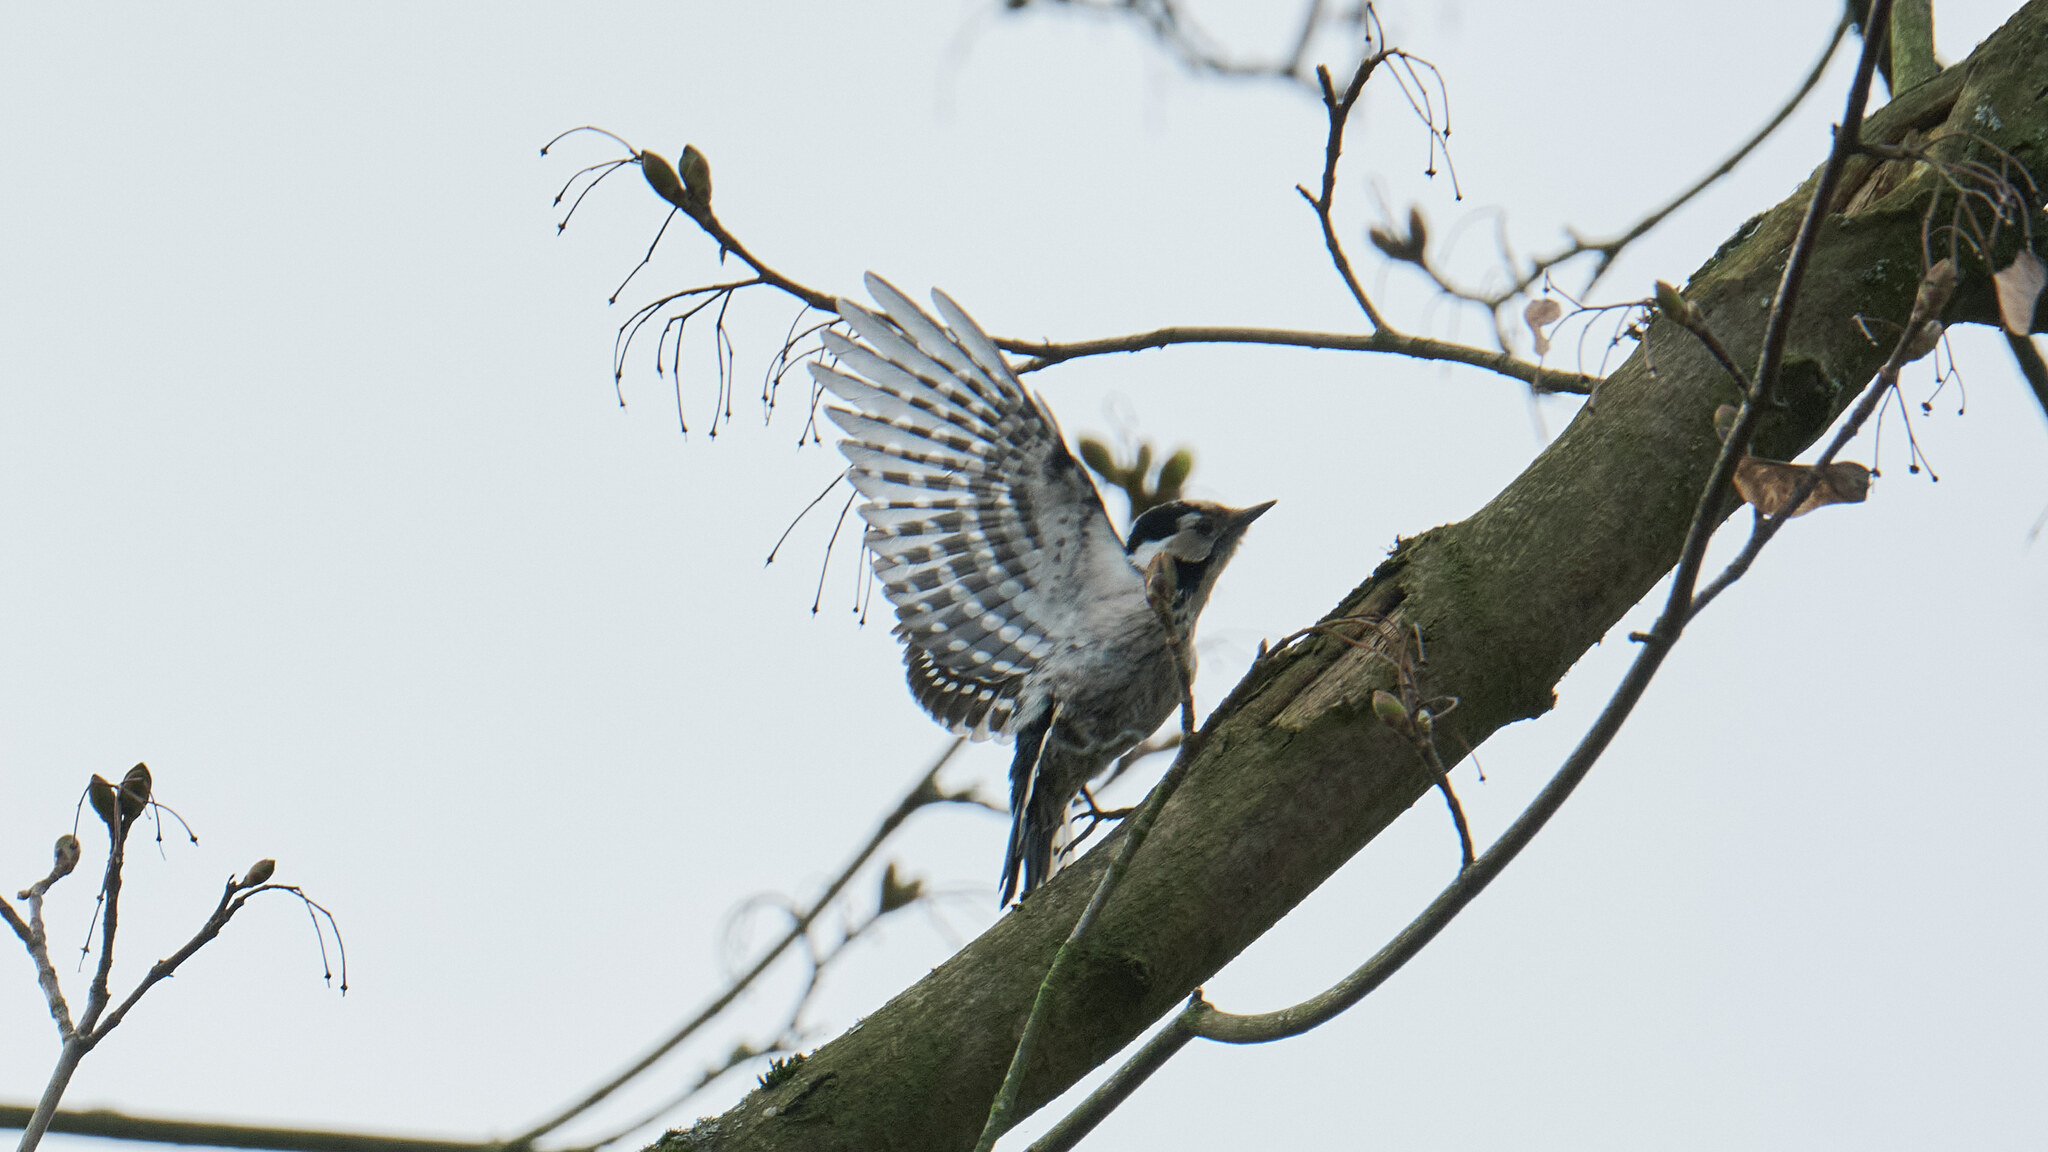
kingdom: Animalia
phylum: Chordata
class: Aves
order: Piciformes
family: Picidae
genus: Dryobates
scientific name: Dryobates minor
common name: Lesser spotted woodpecker
